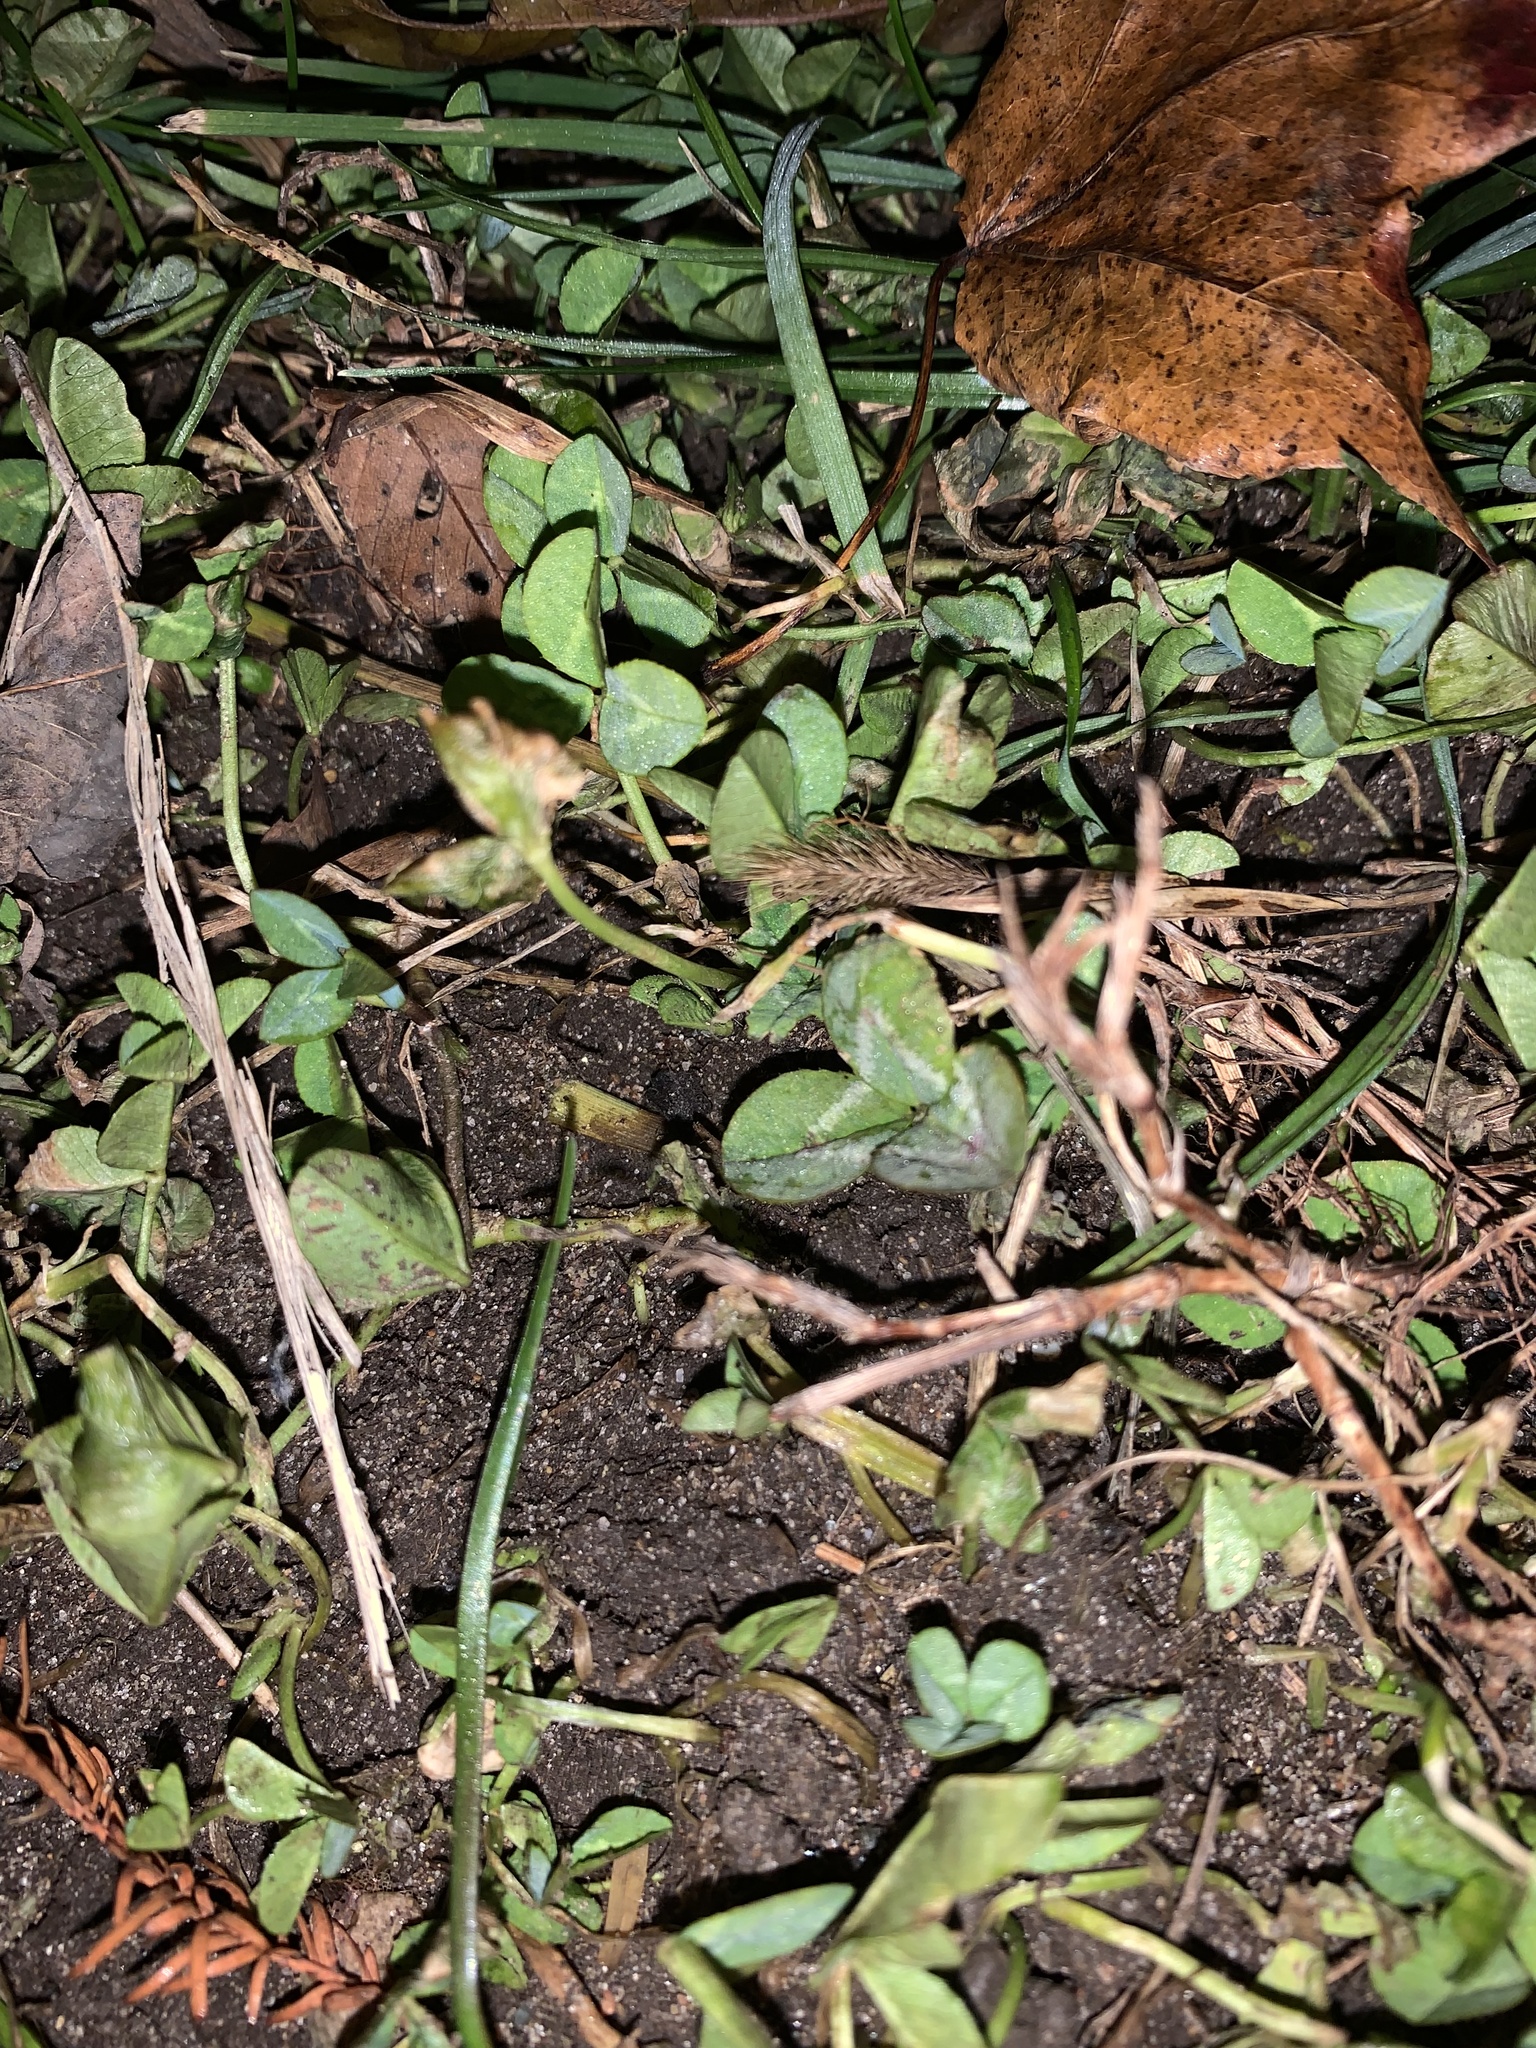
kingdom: Plantae
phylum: Tracheophyta
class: Magnoliopsida
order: Fabales
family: Fabaceae
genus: Trifolium
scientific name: Trifolium repens
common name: White clover
